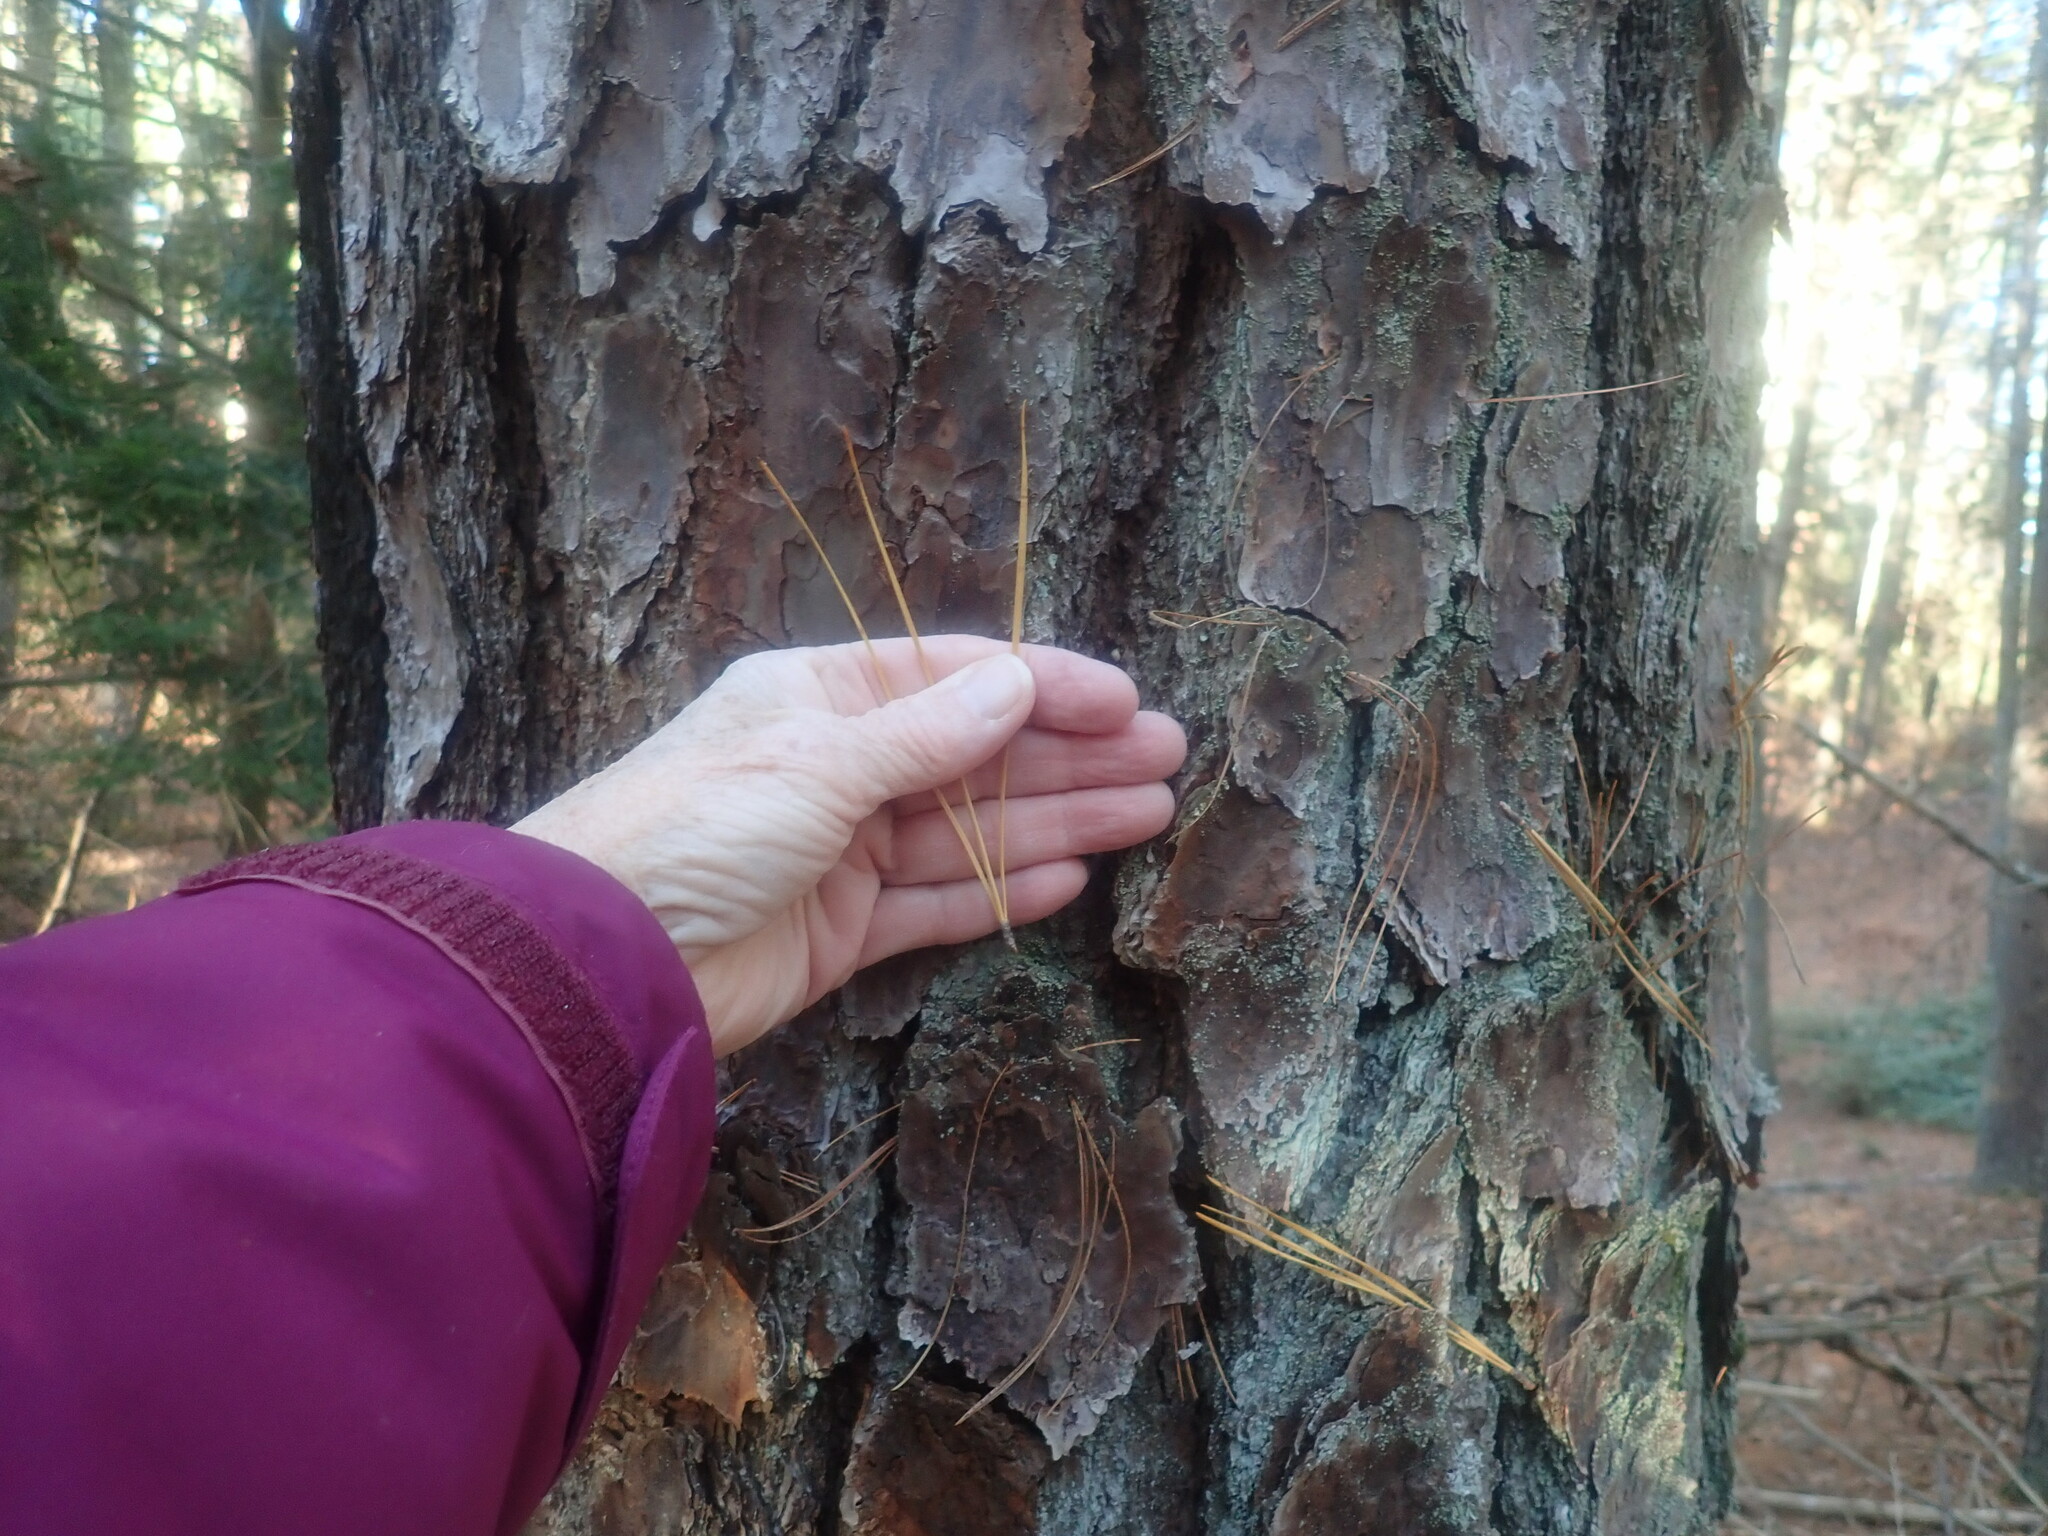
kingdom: Plantae
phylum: Tracheophyta
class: Pinopsida
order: Pinales
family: Pinaceae
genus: Pinus
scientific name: Pinus rigida
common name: Pitch pine
